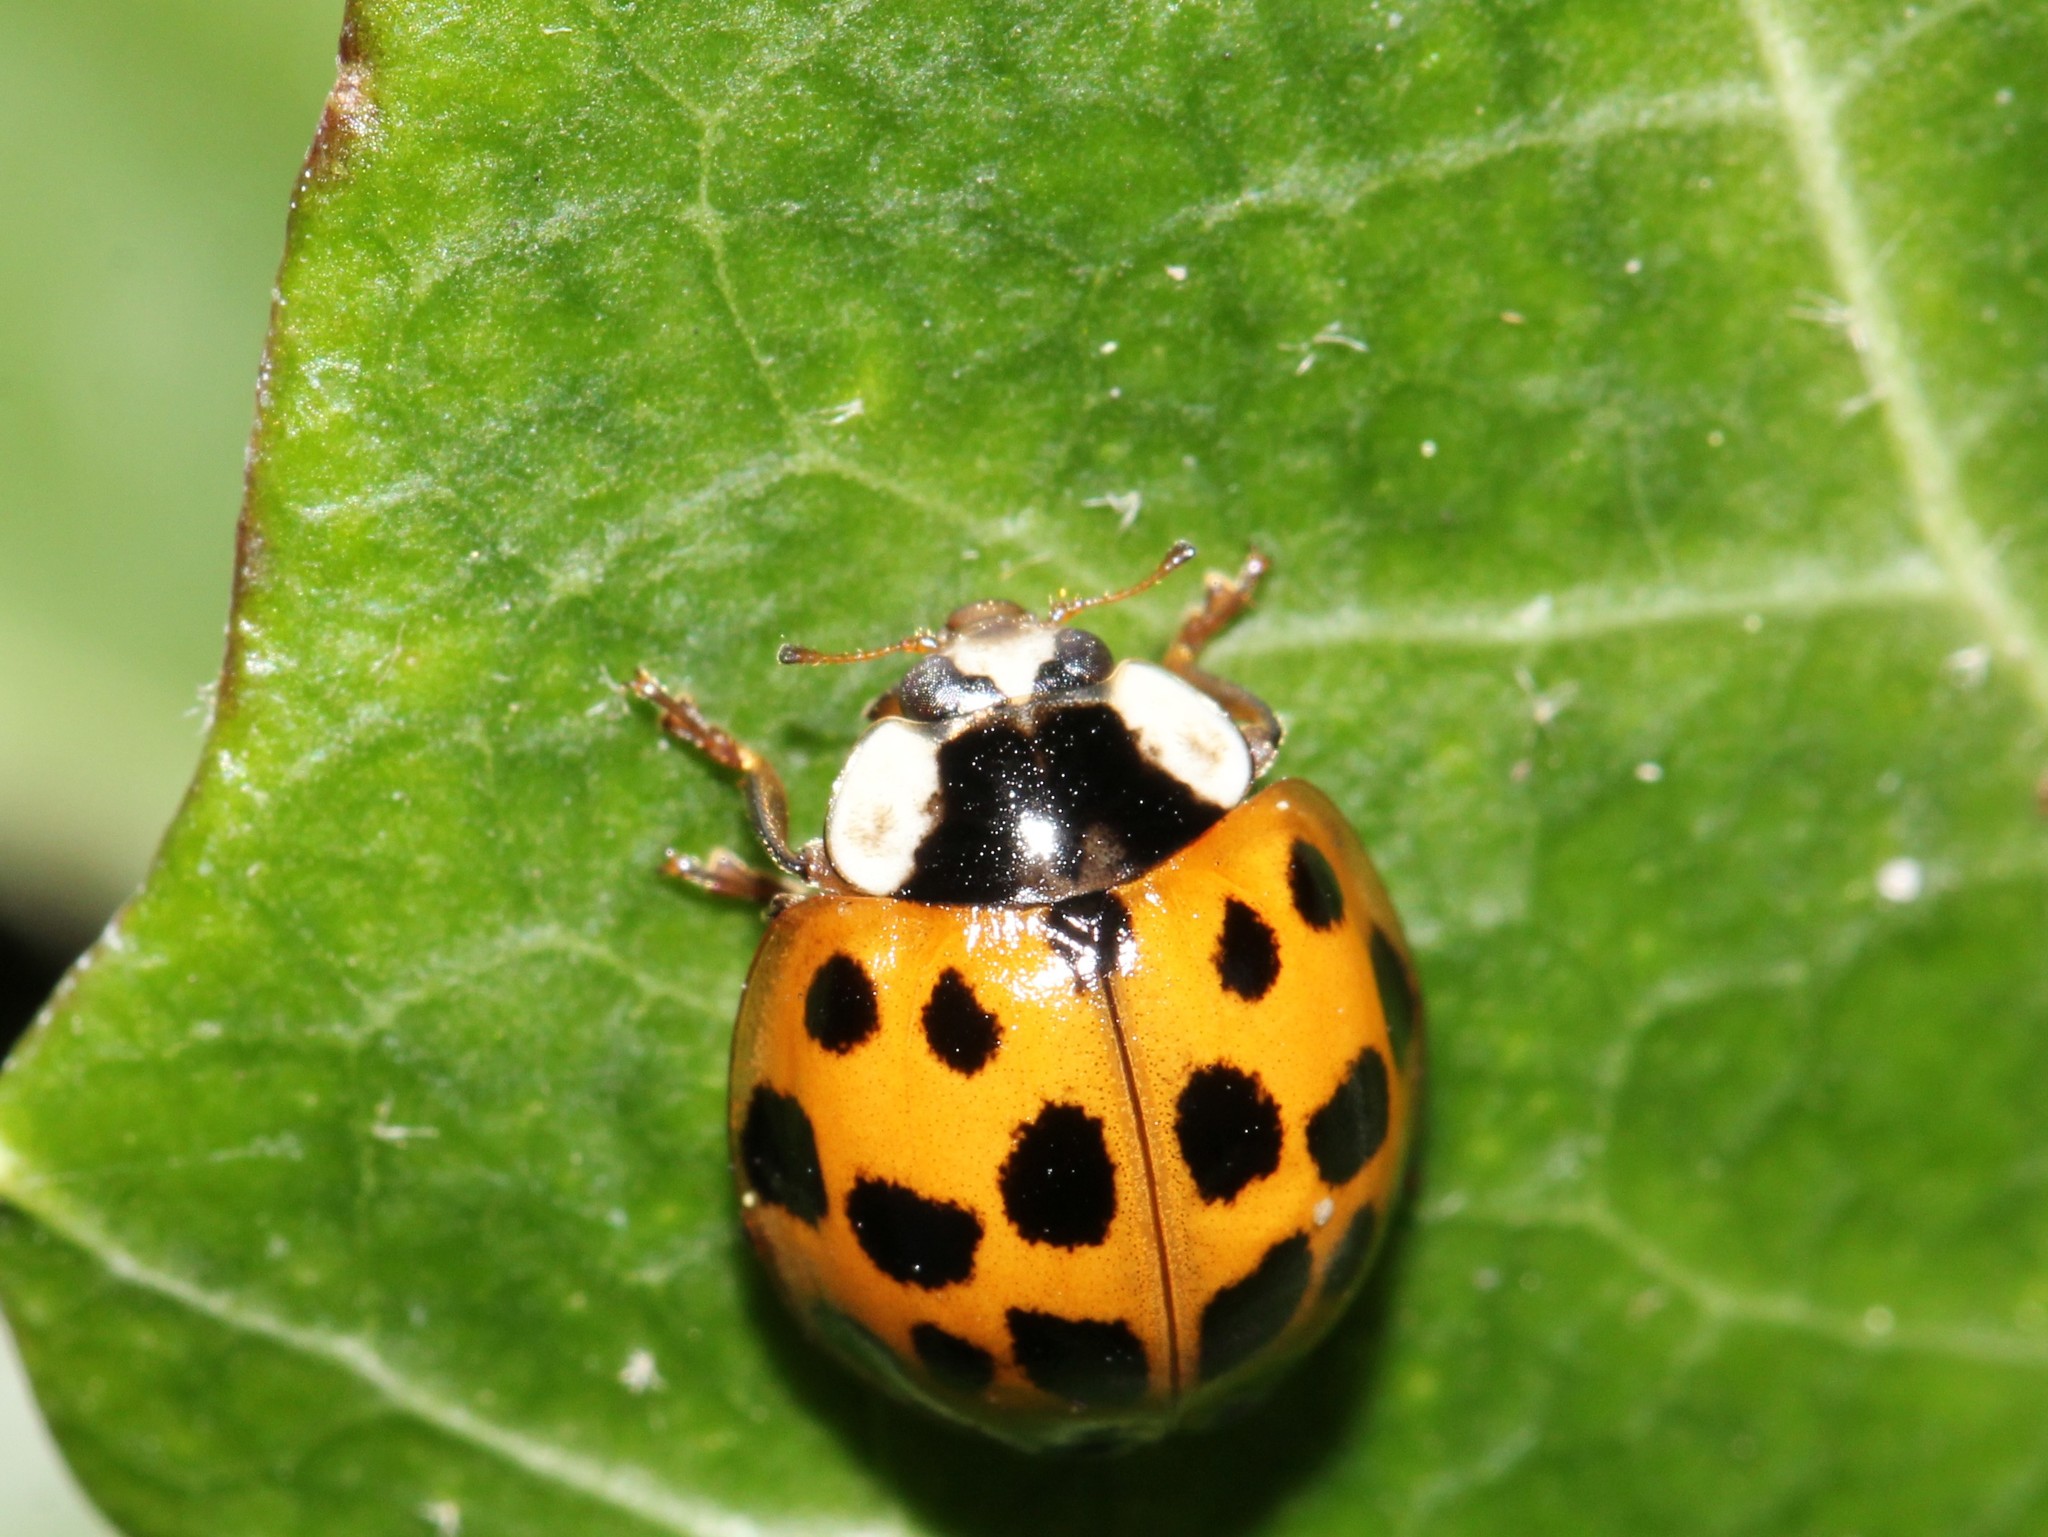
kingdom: Animalia
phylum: Arthropoda
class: Insecta
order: Coleoptera
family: Coccinellidae
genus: Harmonia
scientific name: Harmonia axyridis
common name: Harlequin ladybird
